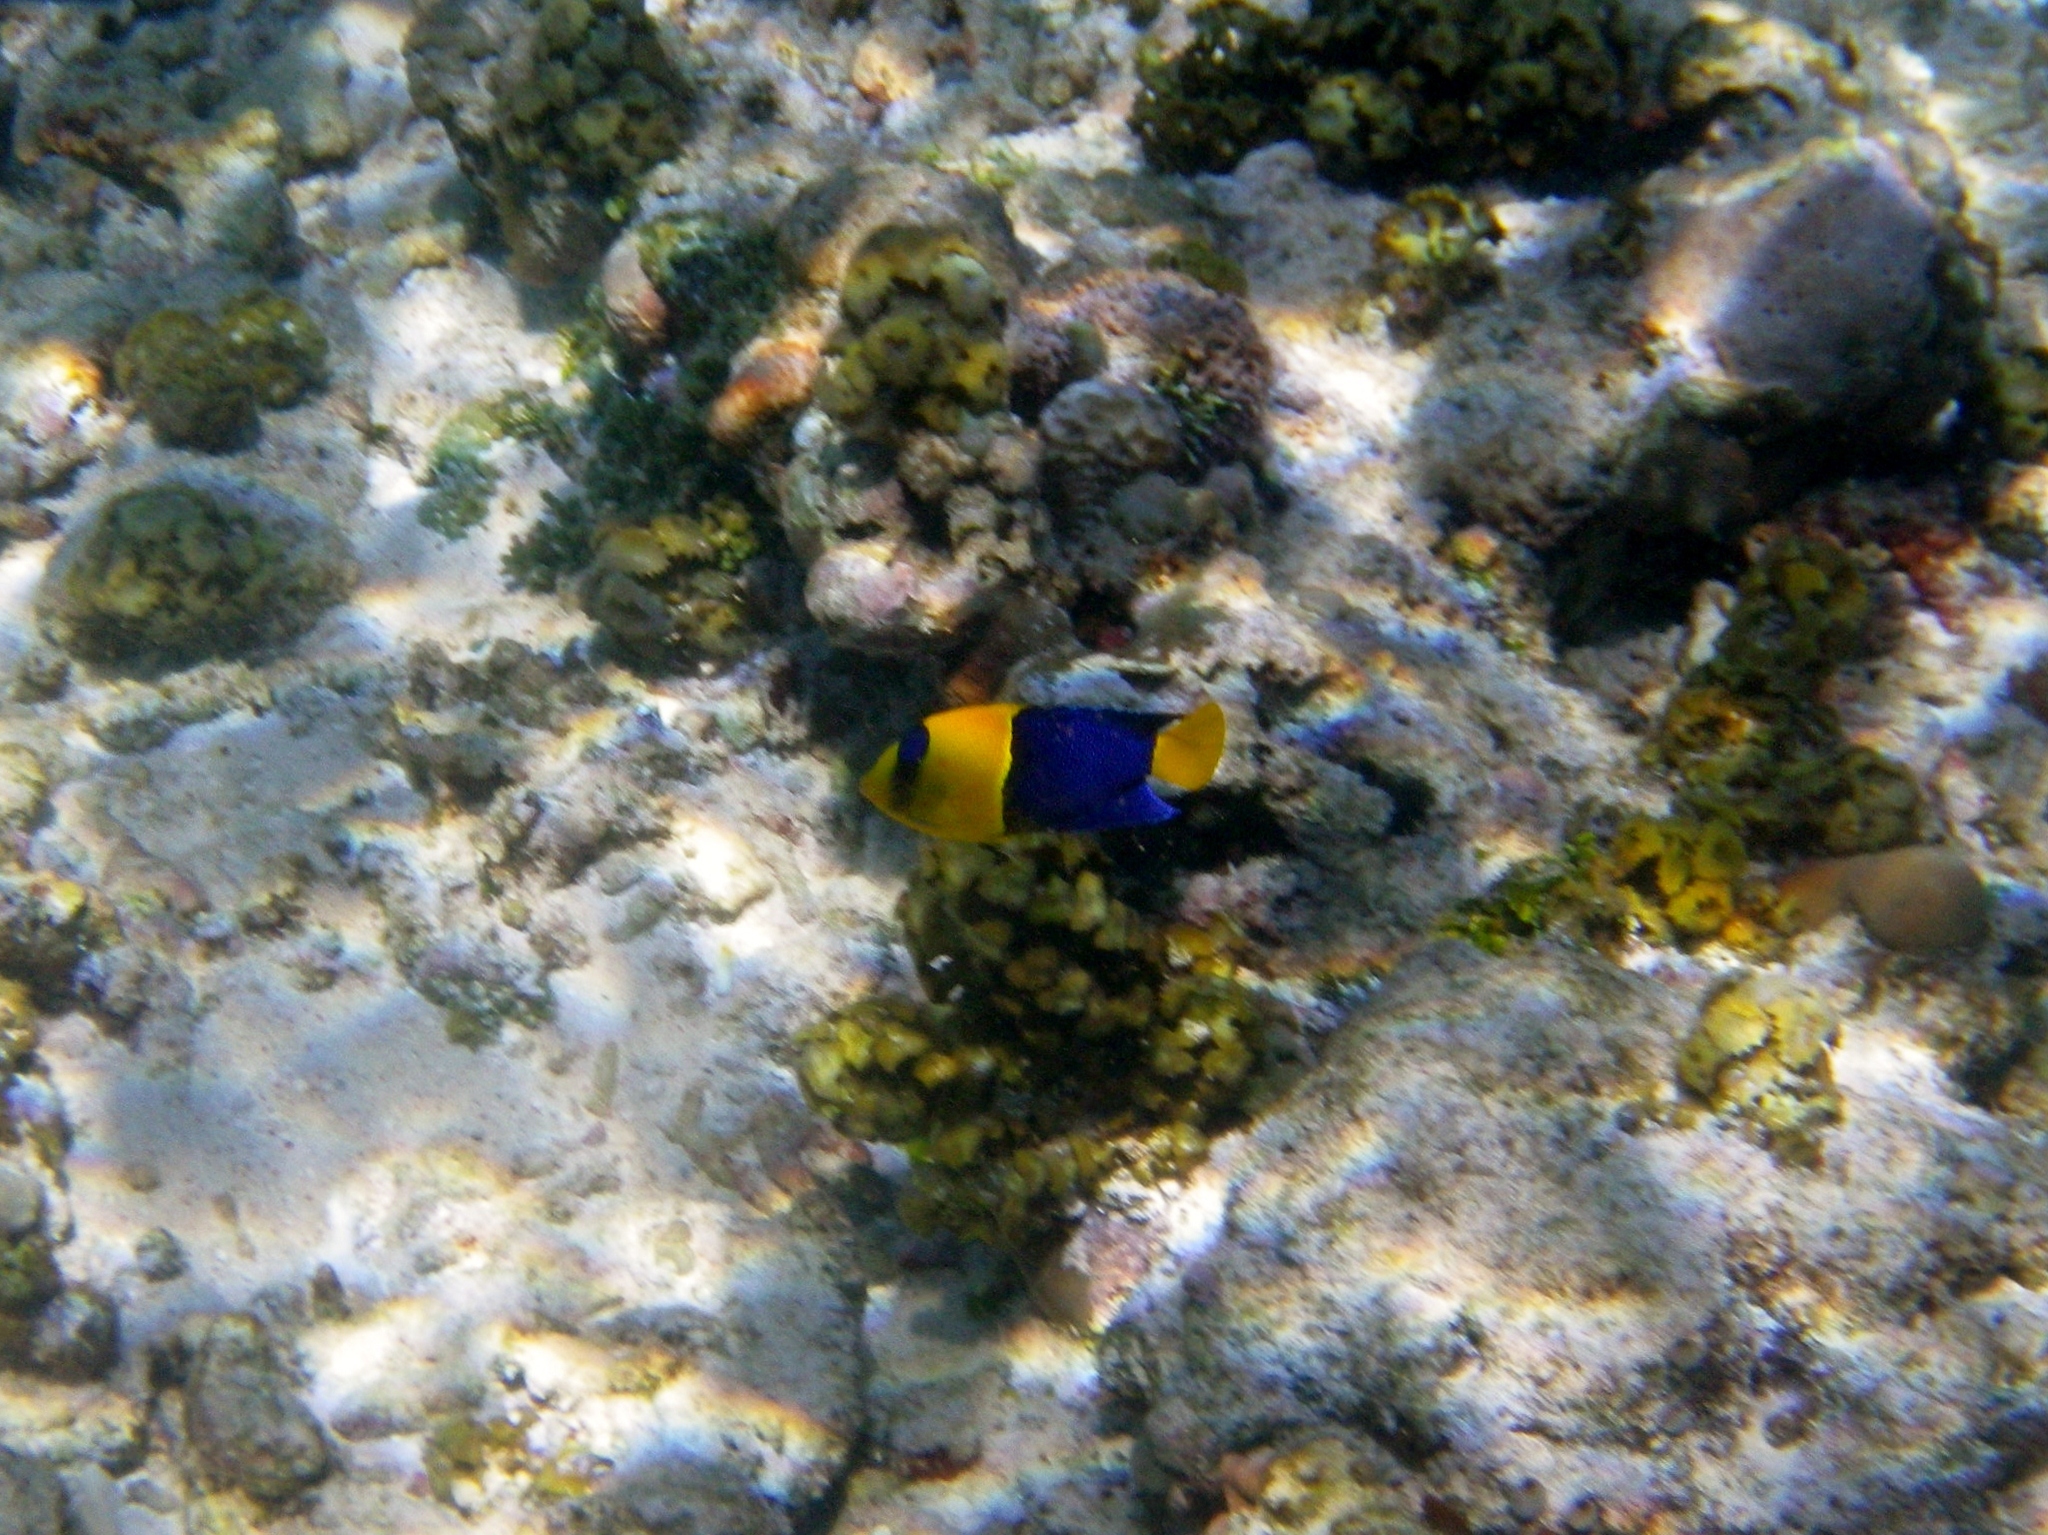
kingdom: Animalia
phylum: Chordata
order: Perciformes
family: Pomacanthidae
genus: Centropyge
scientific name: Centropyge bicolor
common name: Bicolor angelfish
